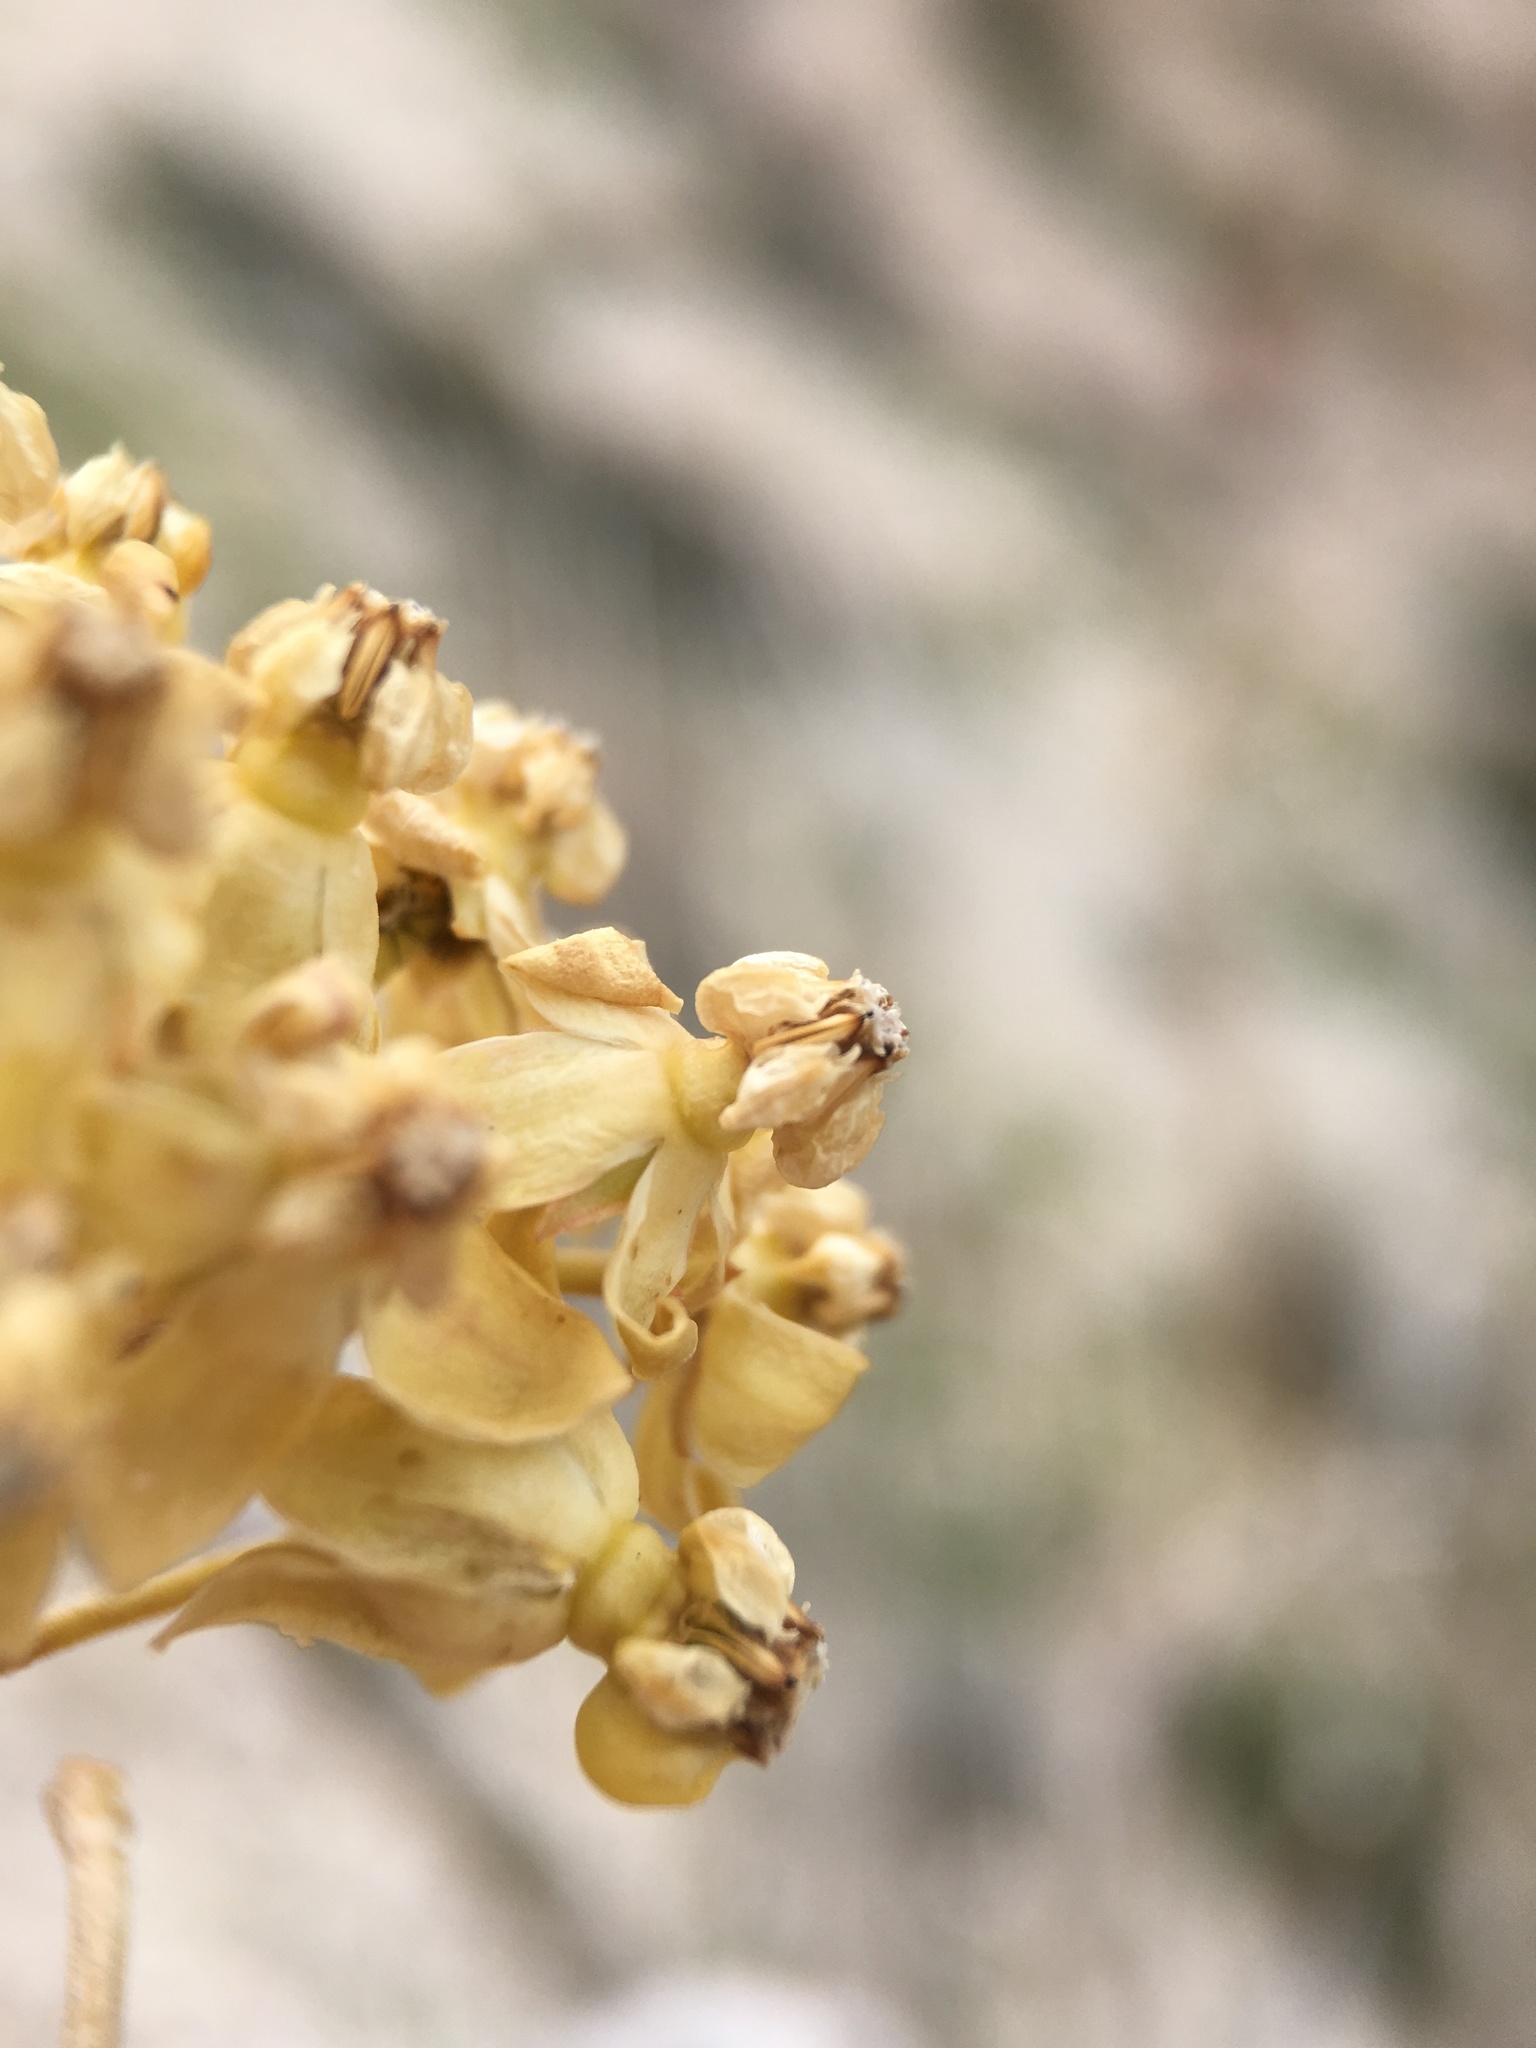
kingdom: Plantae
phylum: Tracheophyta
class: Magnoliopsida
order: Gentianales
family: Apocynaceae
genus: Asclepias
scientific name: Asclepias albicans
